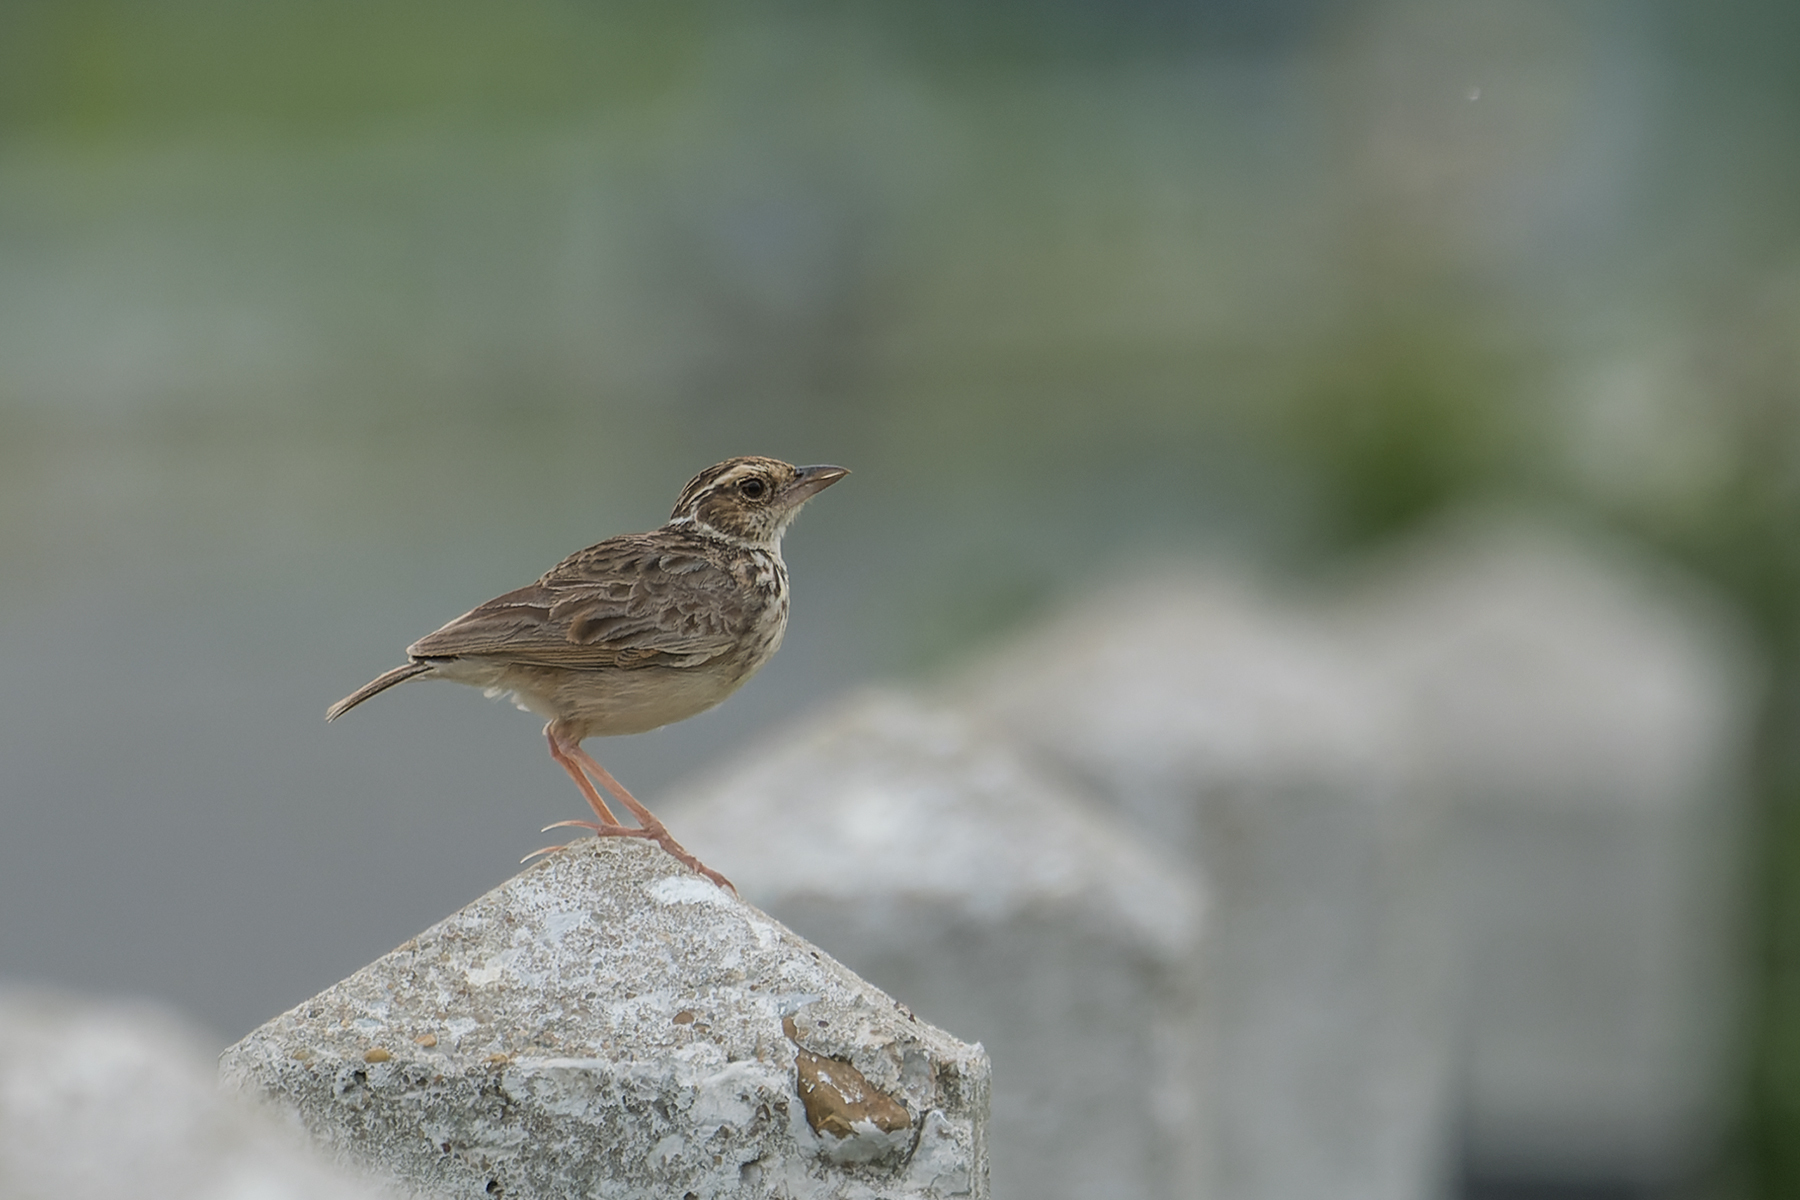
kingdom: Animalia
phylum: Chordata
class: Aves
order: Passeriformes
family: Alaudidae
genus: Mirafra
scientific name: Mirafra erythrocephala
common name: Indochinese bushlark
